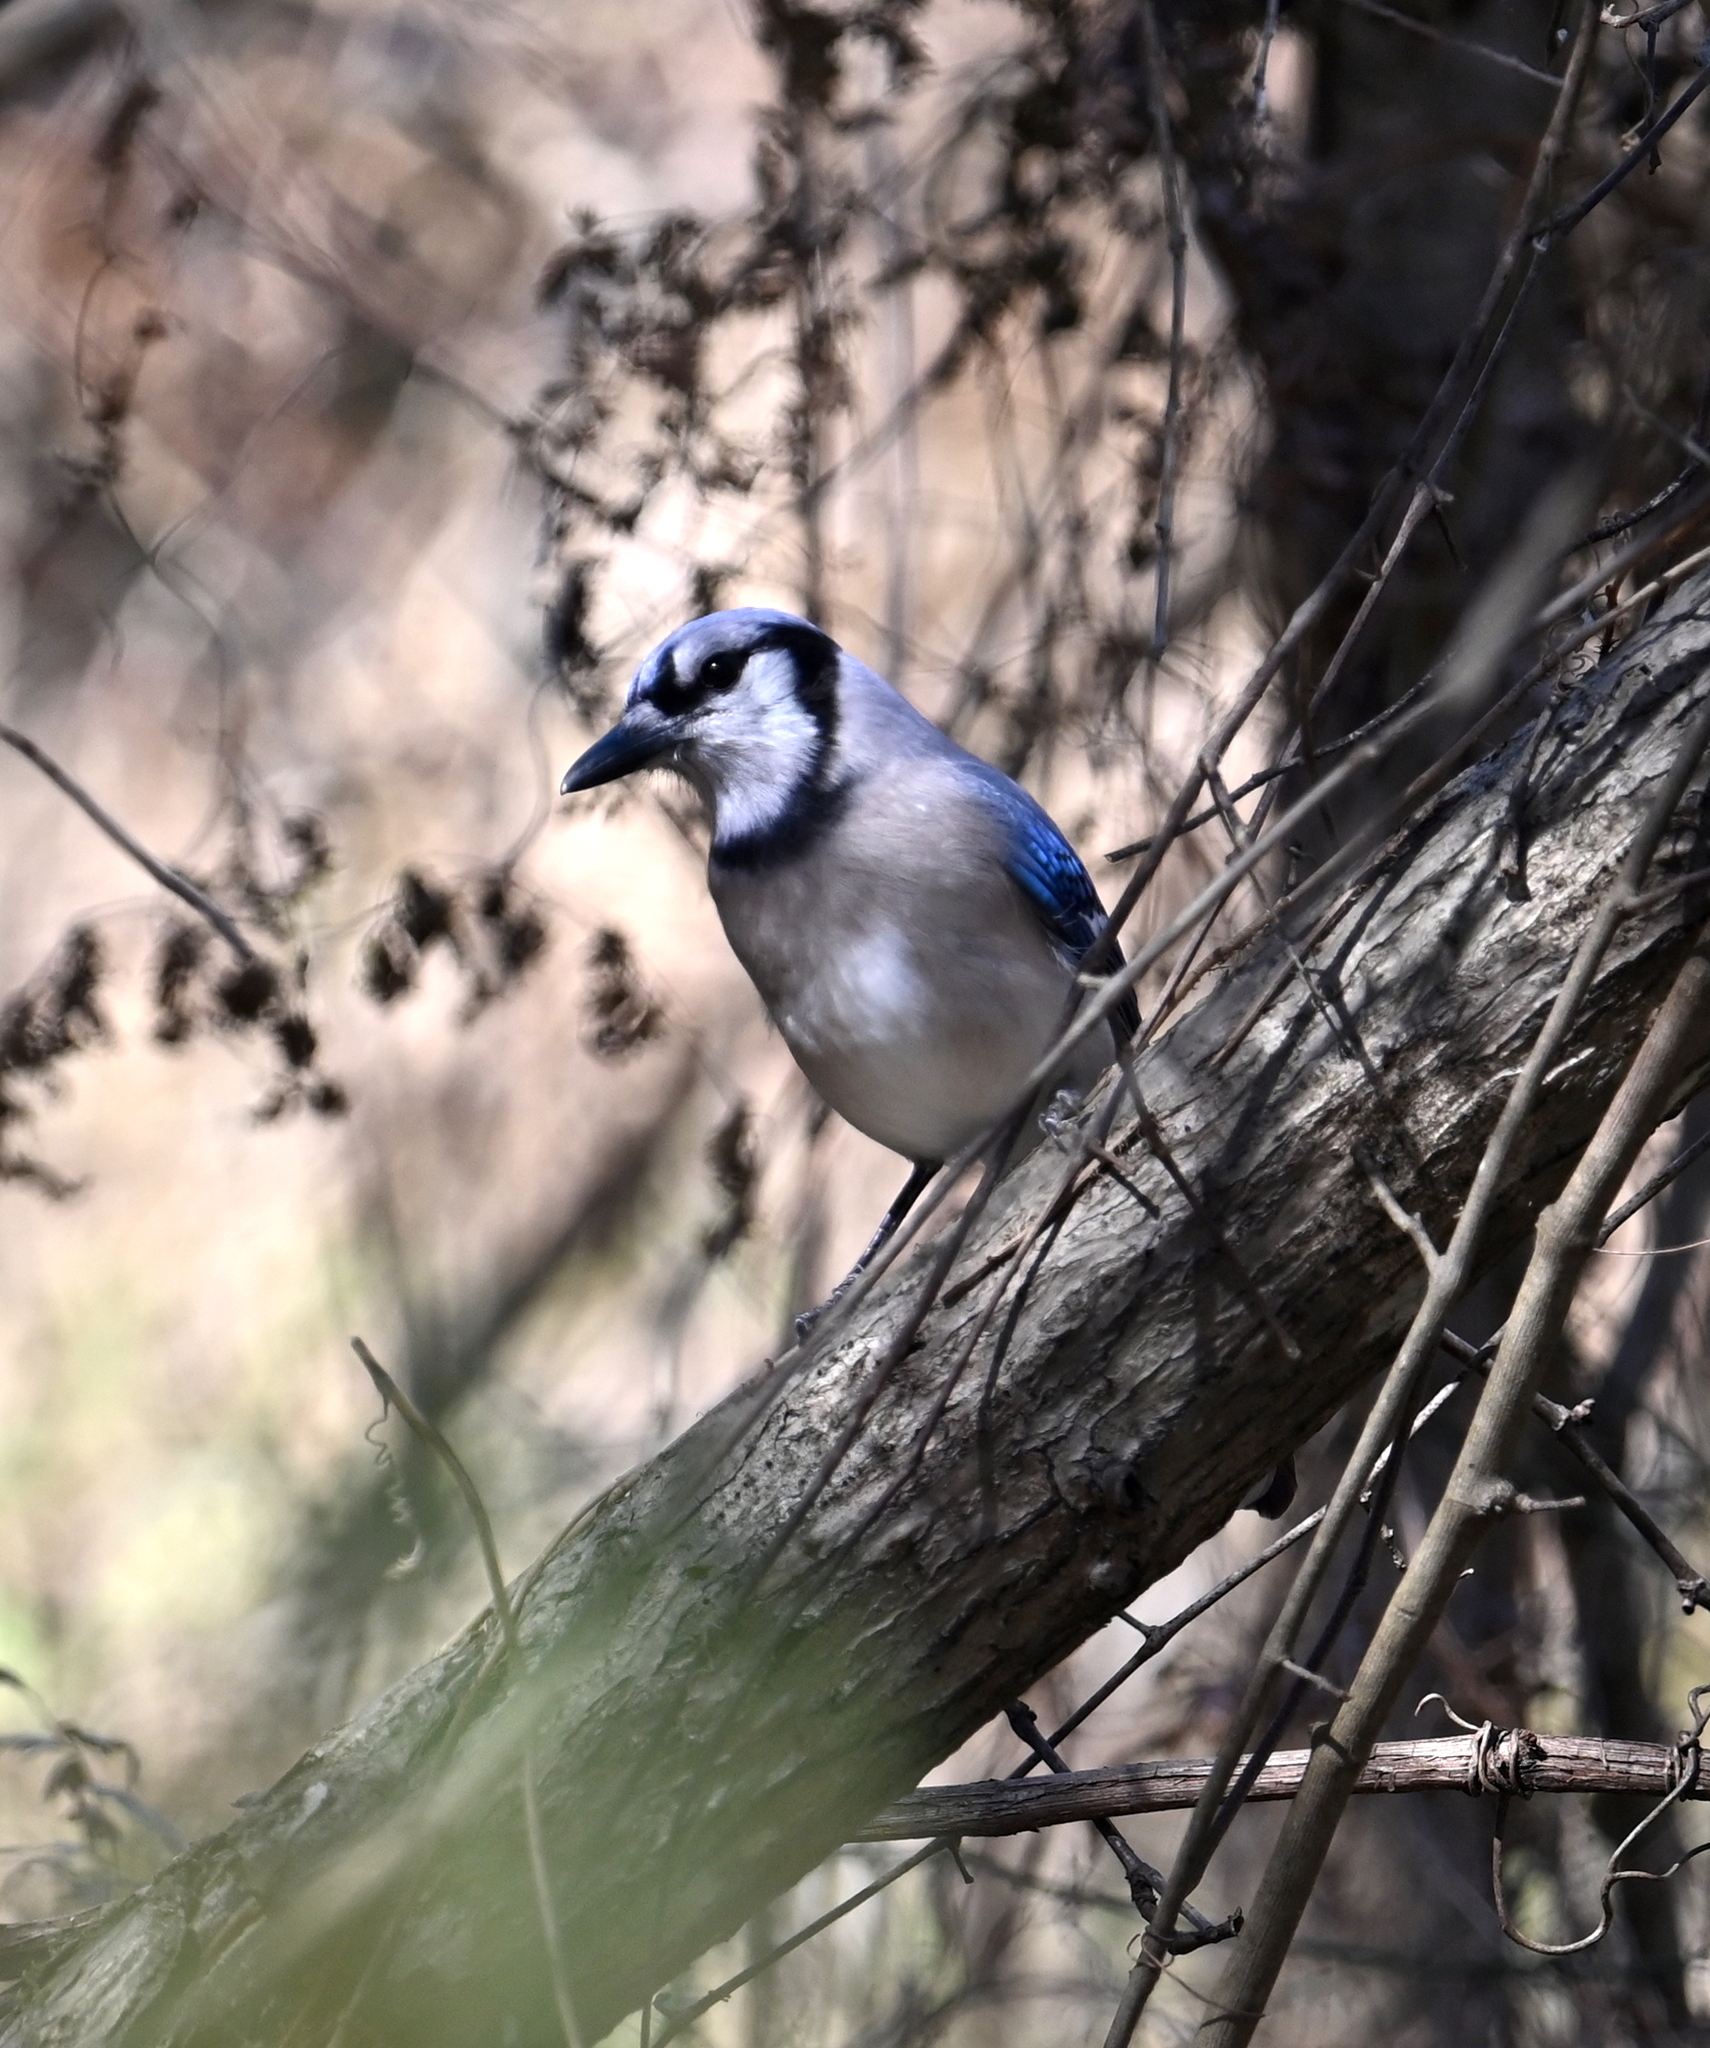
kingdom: Animalia
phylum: Chordata
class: Aves
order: Passeriformes
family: Corvidae
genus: Cyanocitta
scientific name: Cyanocitta cristata
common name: Blue jay
